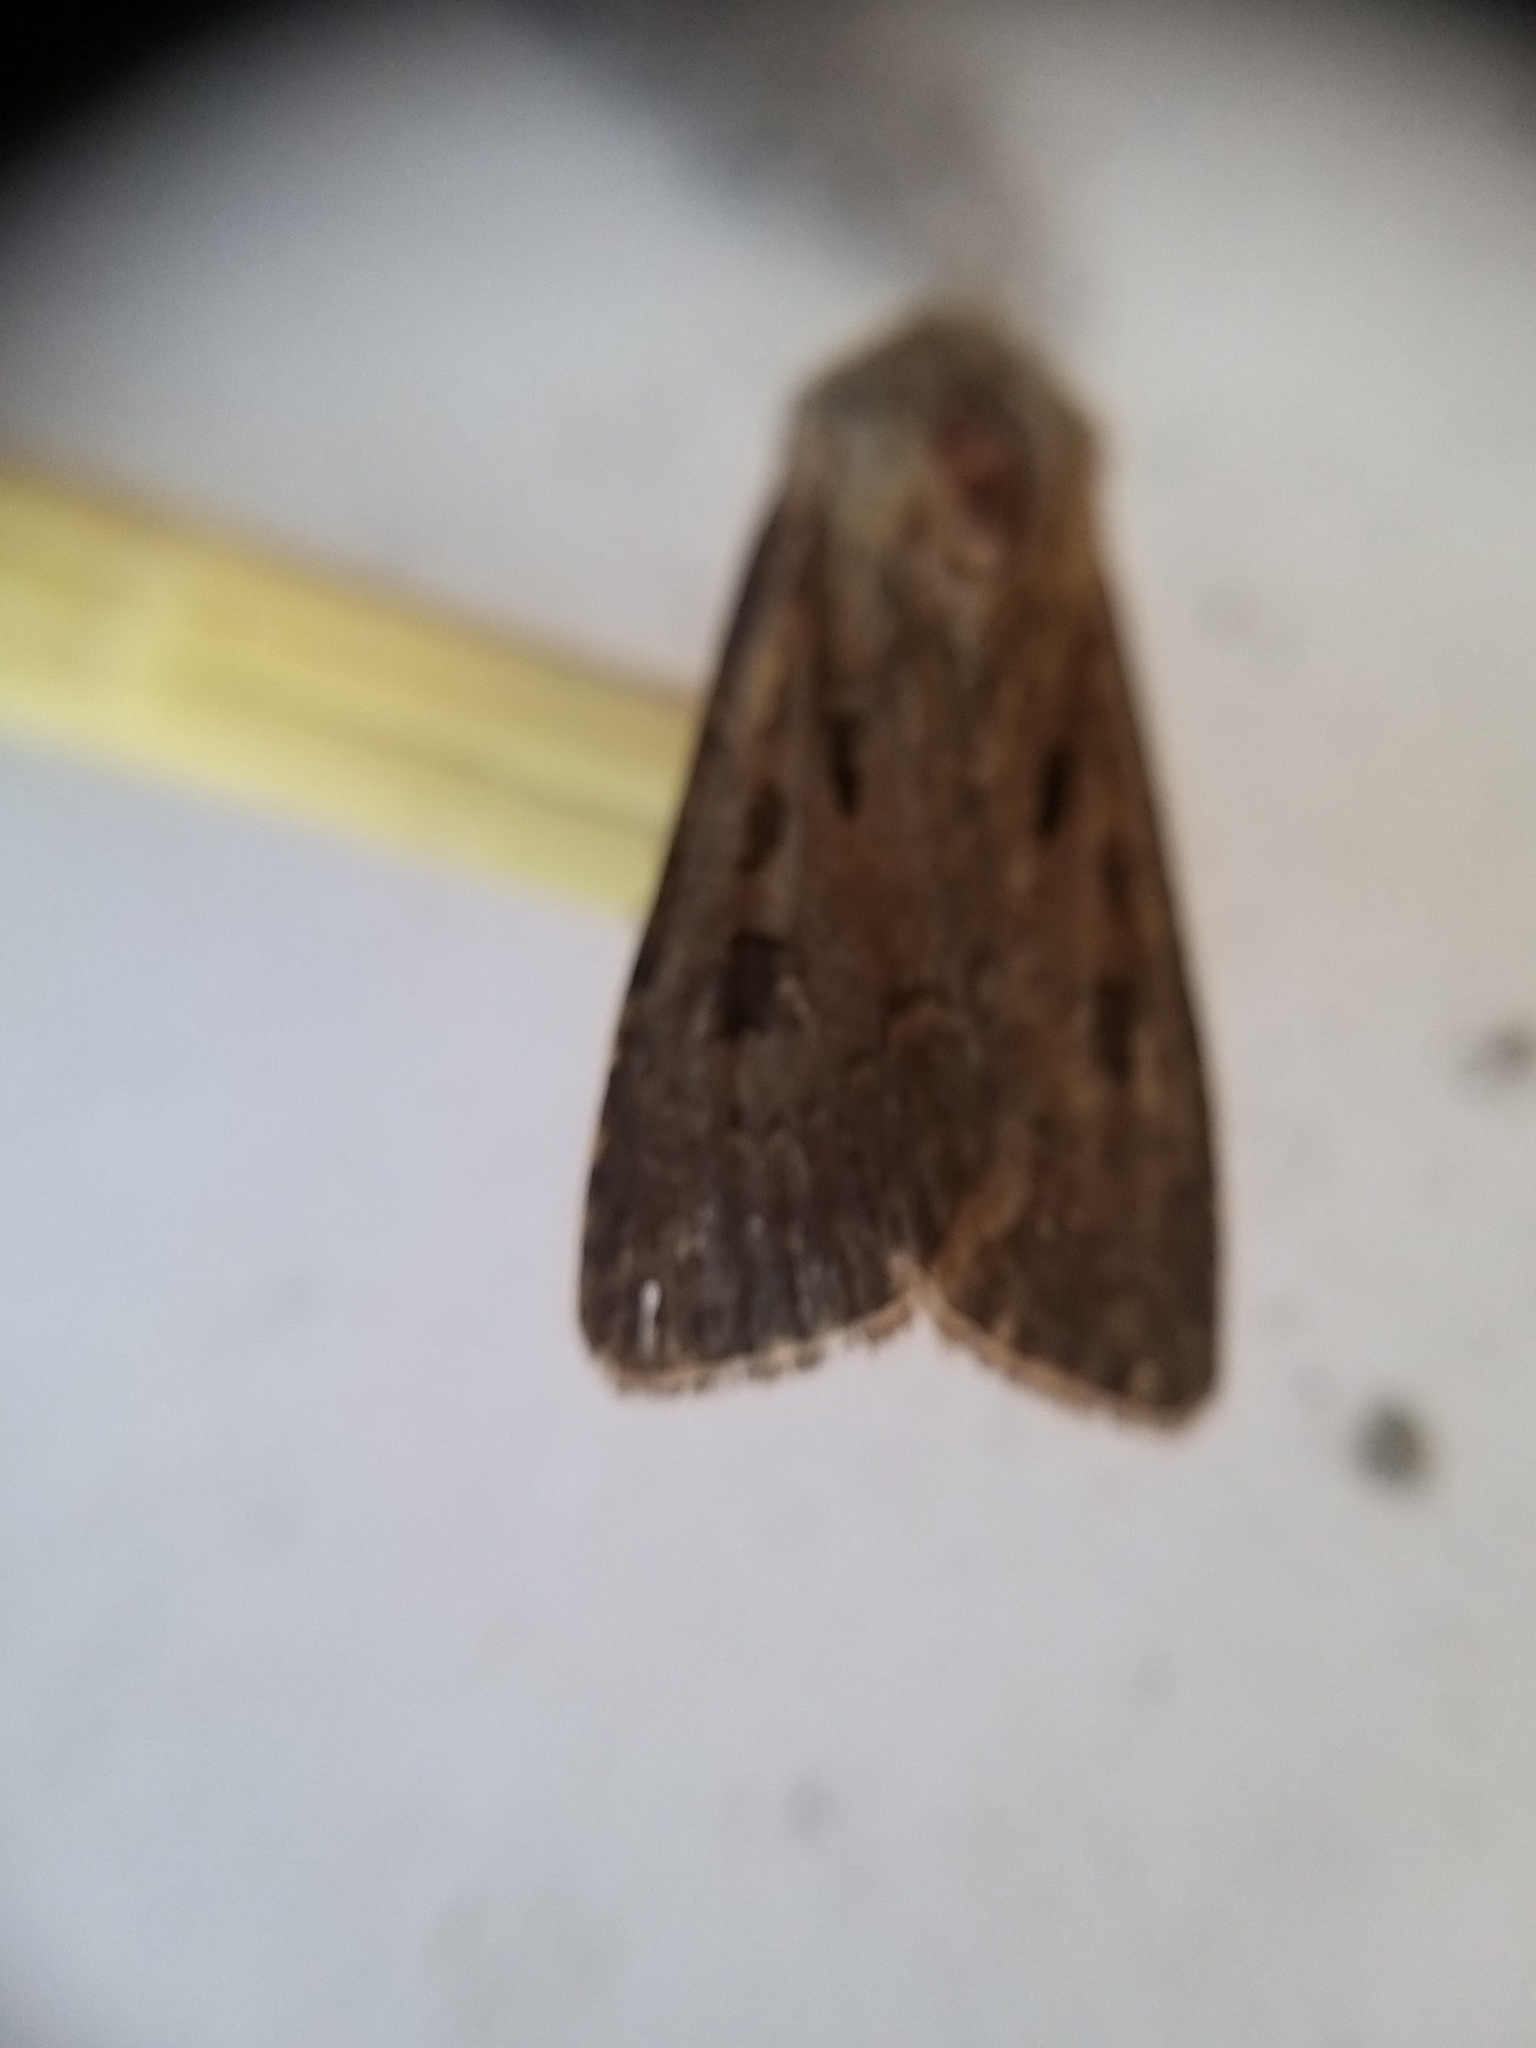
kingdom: Animalia
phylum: Arthropoda
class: Insecta
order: Lepidoptera
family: Noctuidae
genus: Agrotis
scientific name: Agrotis exclamationis
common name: Heart and dart
